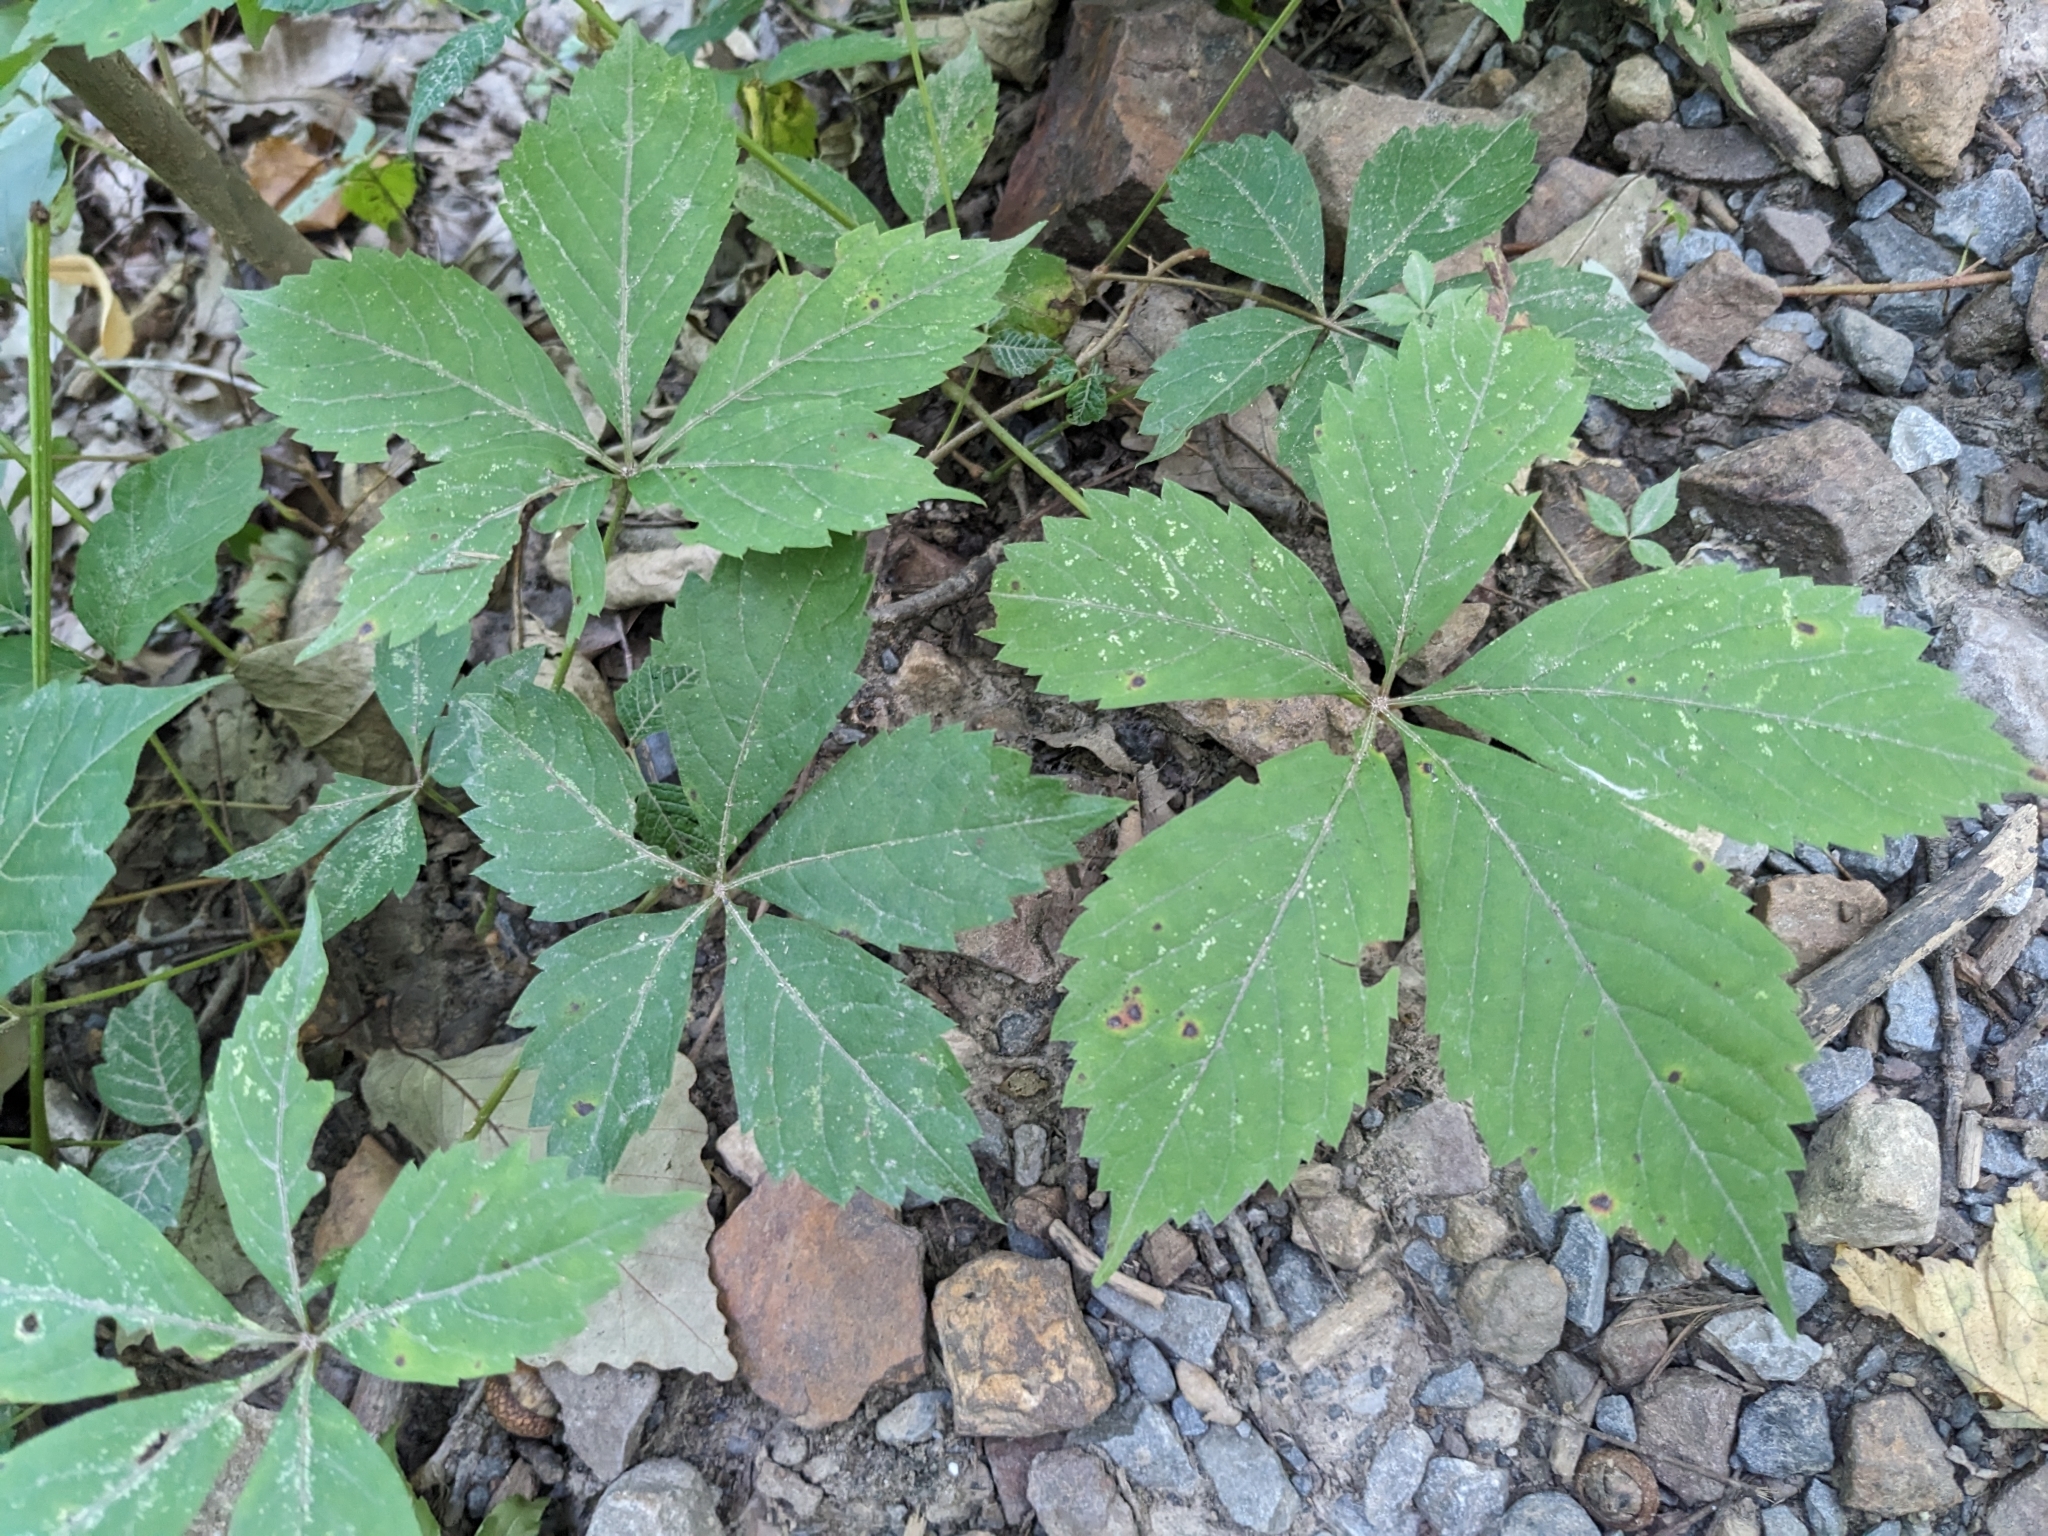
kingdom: Plantae
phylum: Tracheophyta
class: Magnoliopsida
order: Vitales
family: Vitaceae
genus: Parthenocissus
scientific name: Parthenocissus quinquefolia
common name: Virginia-creeper
